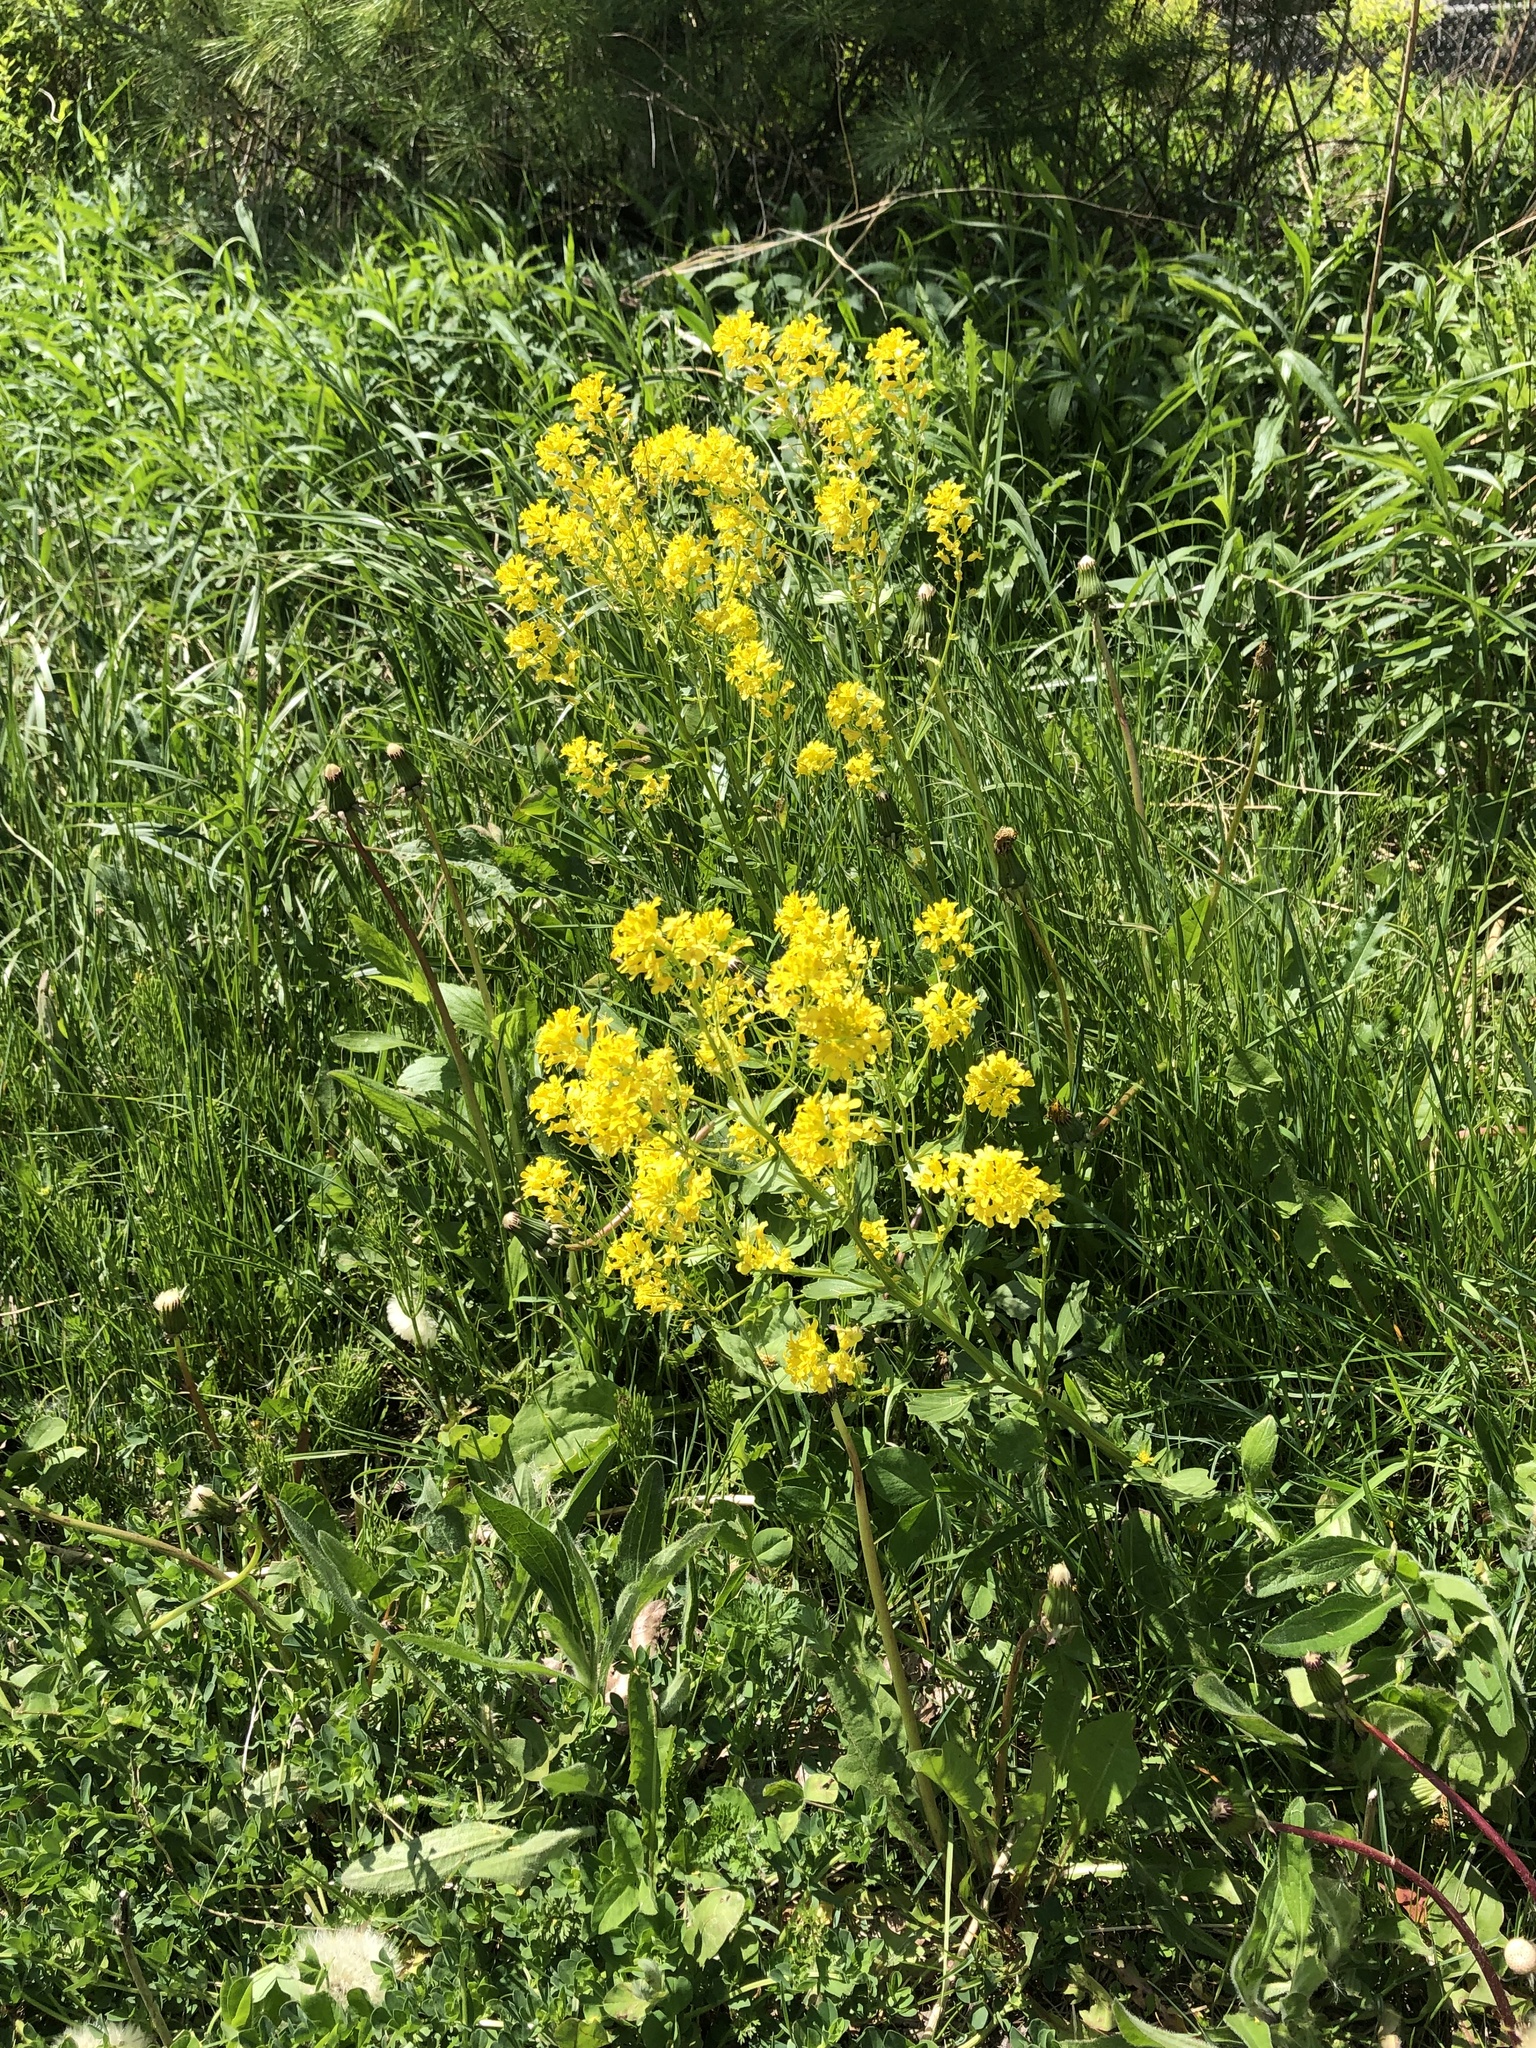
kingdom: Plantae
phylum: Tracheophyta
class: Magnoliopsida
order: Brassicales
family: Brassicaceae
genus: Barbarea
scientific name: Barbarea vulgaris
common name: Cressy-greens
